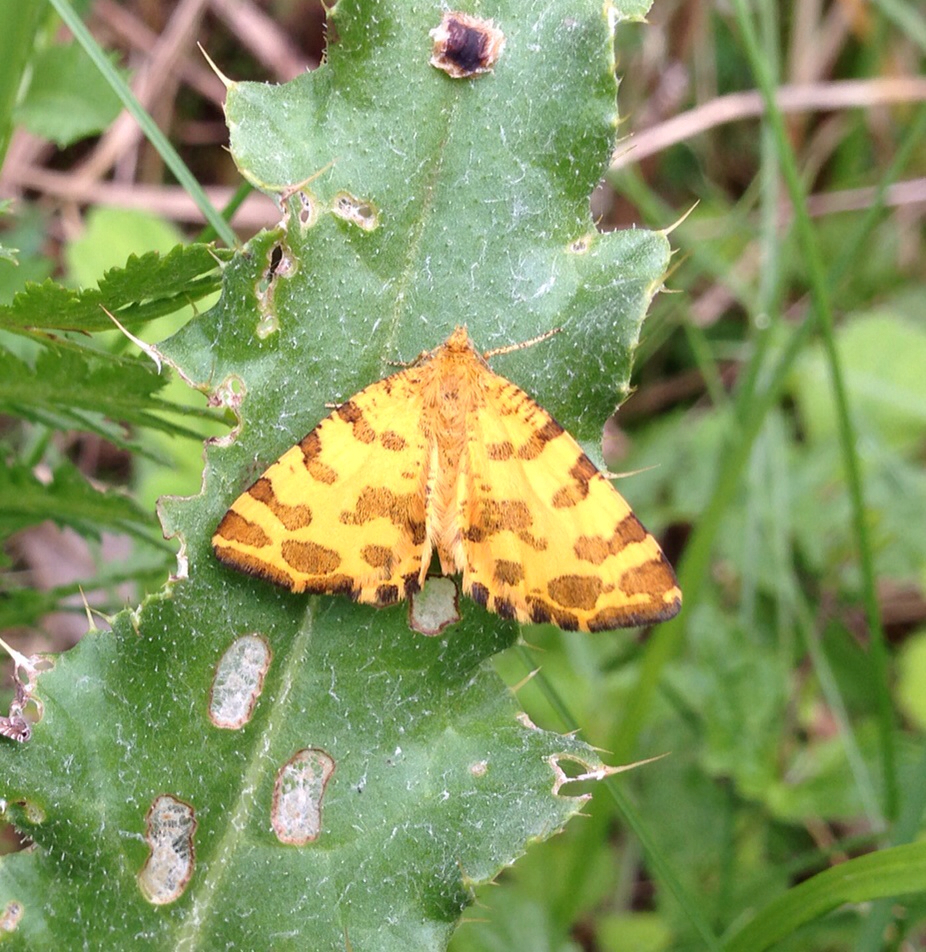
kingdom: Animalia
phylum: Arthropoda
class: Insecta
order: Lepidoptera
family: Geometridae
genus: Pseudopanthera
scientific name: Pseudopanthera macularia
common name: Speckled yellow
